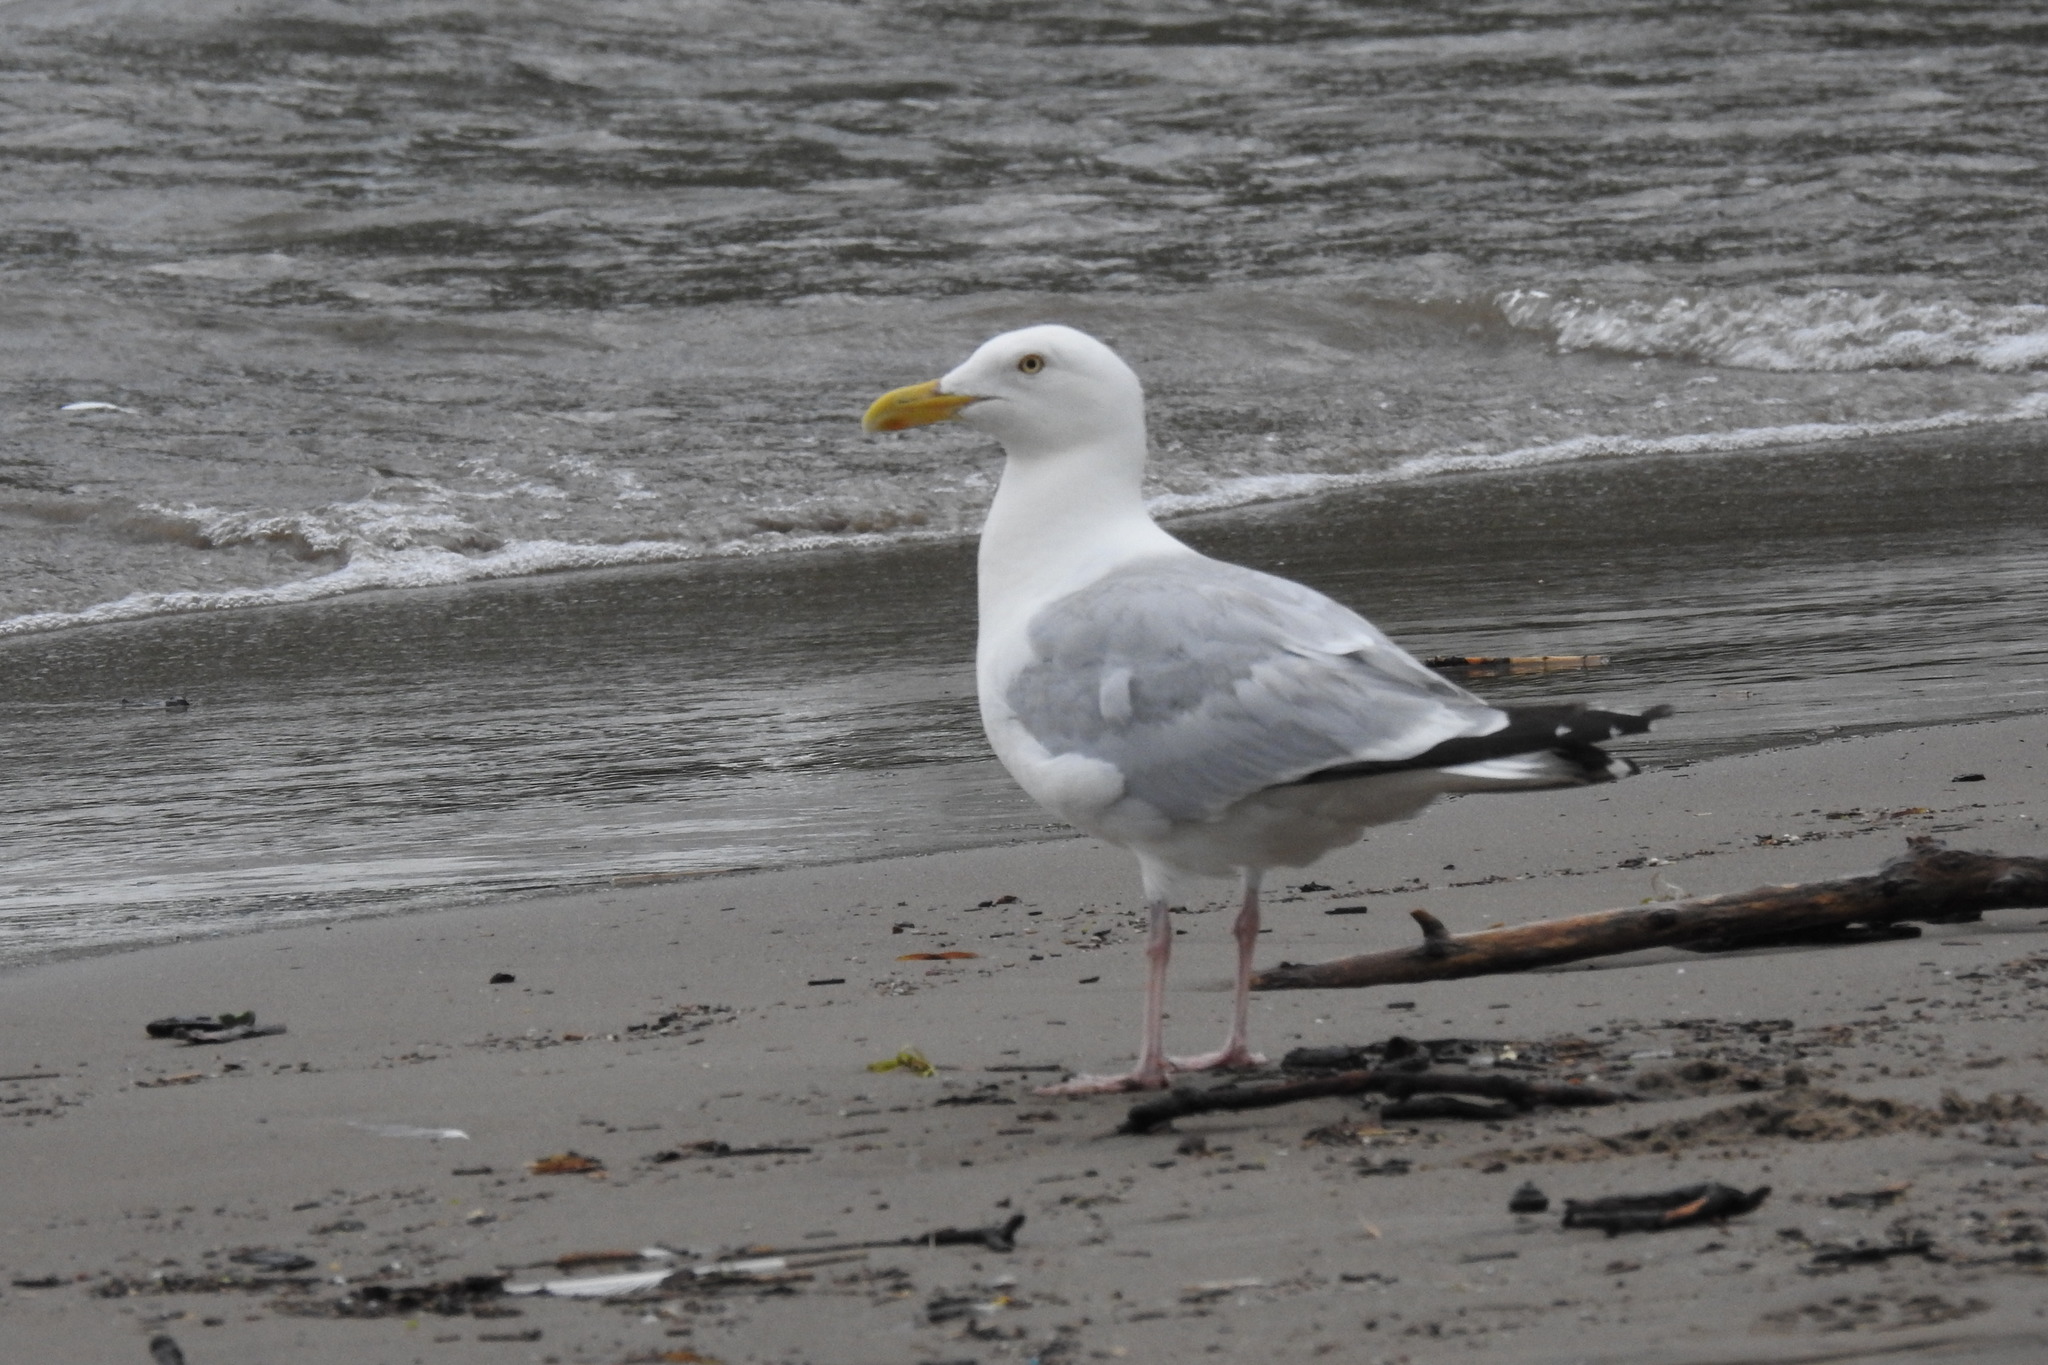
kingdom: Animalia
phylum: Chordata
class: Aves
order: Charadriiformes
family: Laridae
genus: Larus
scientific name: Larus argentatus
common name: Herring gull
